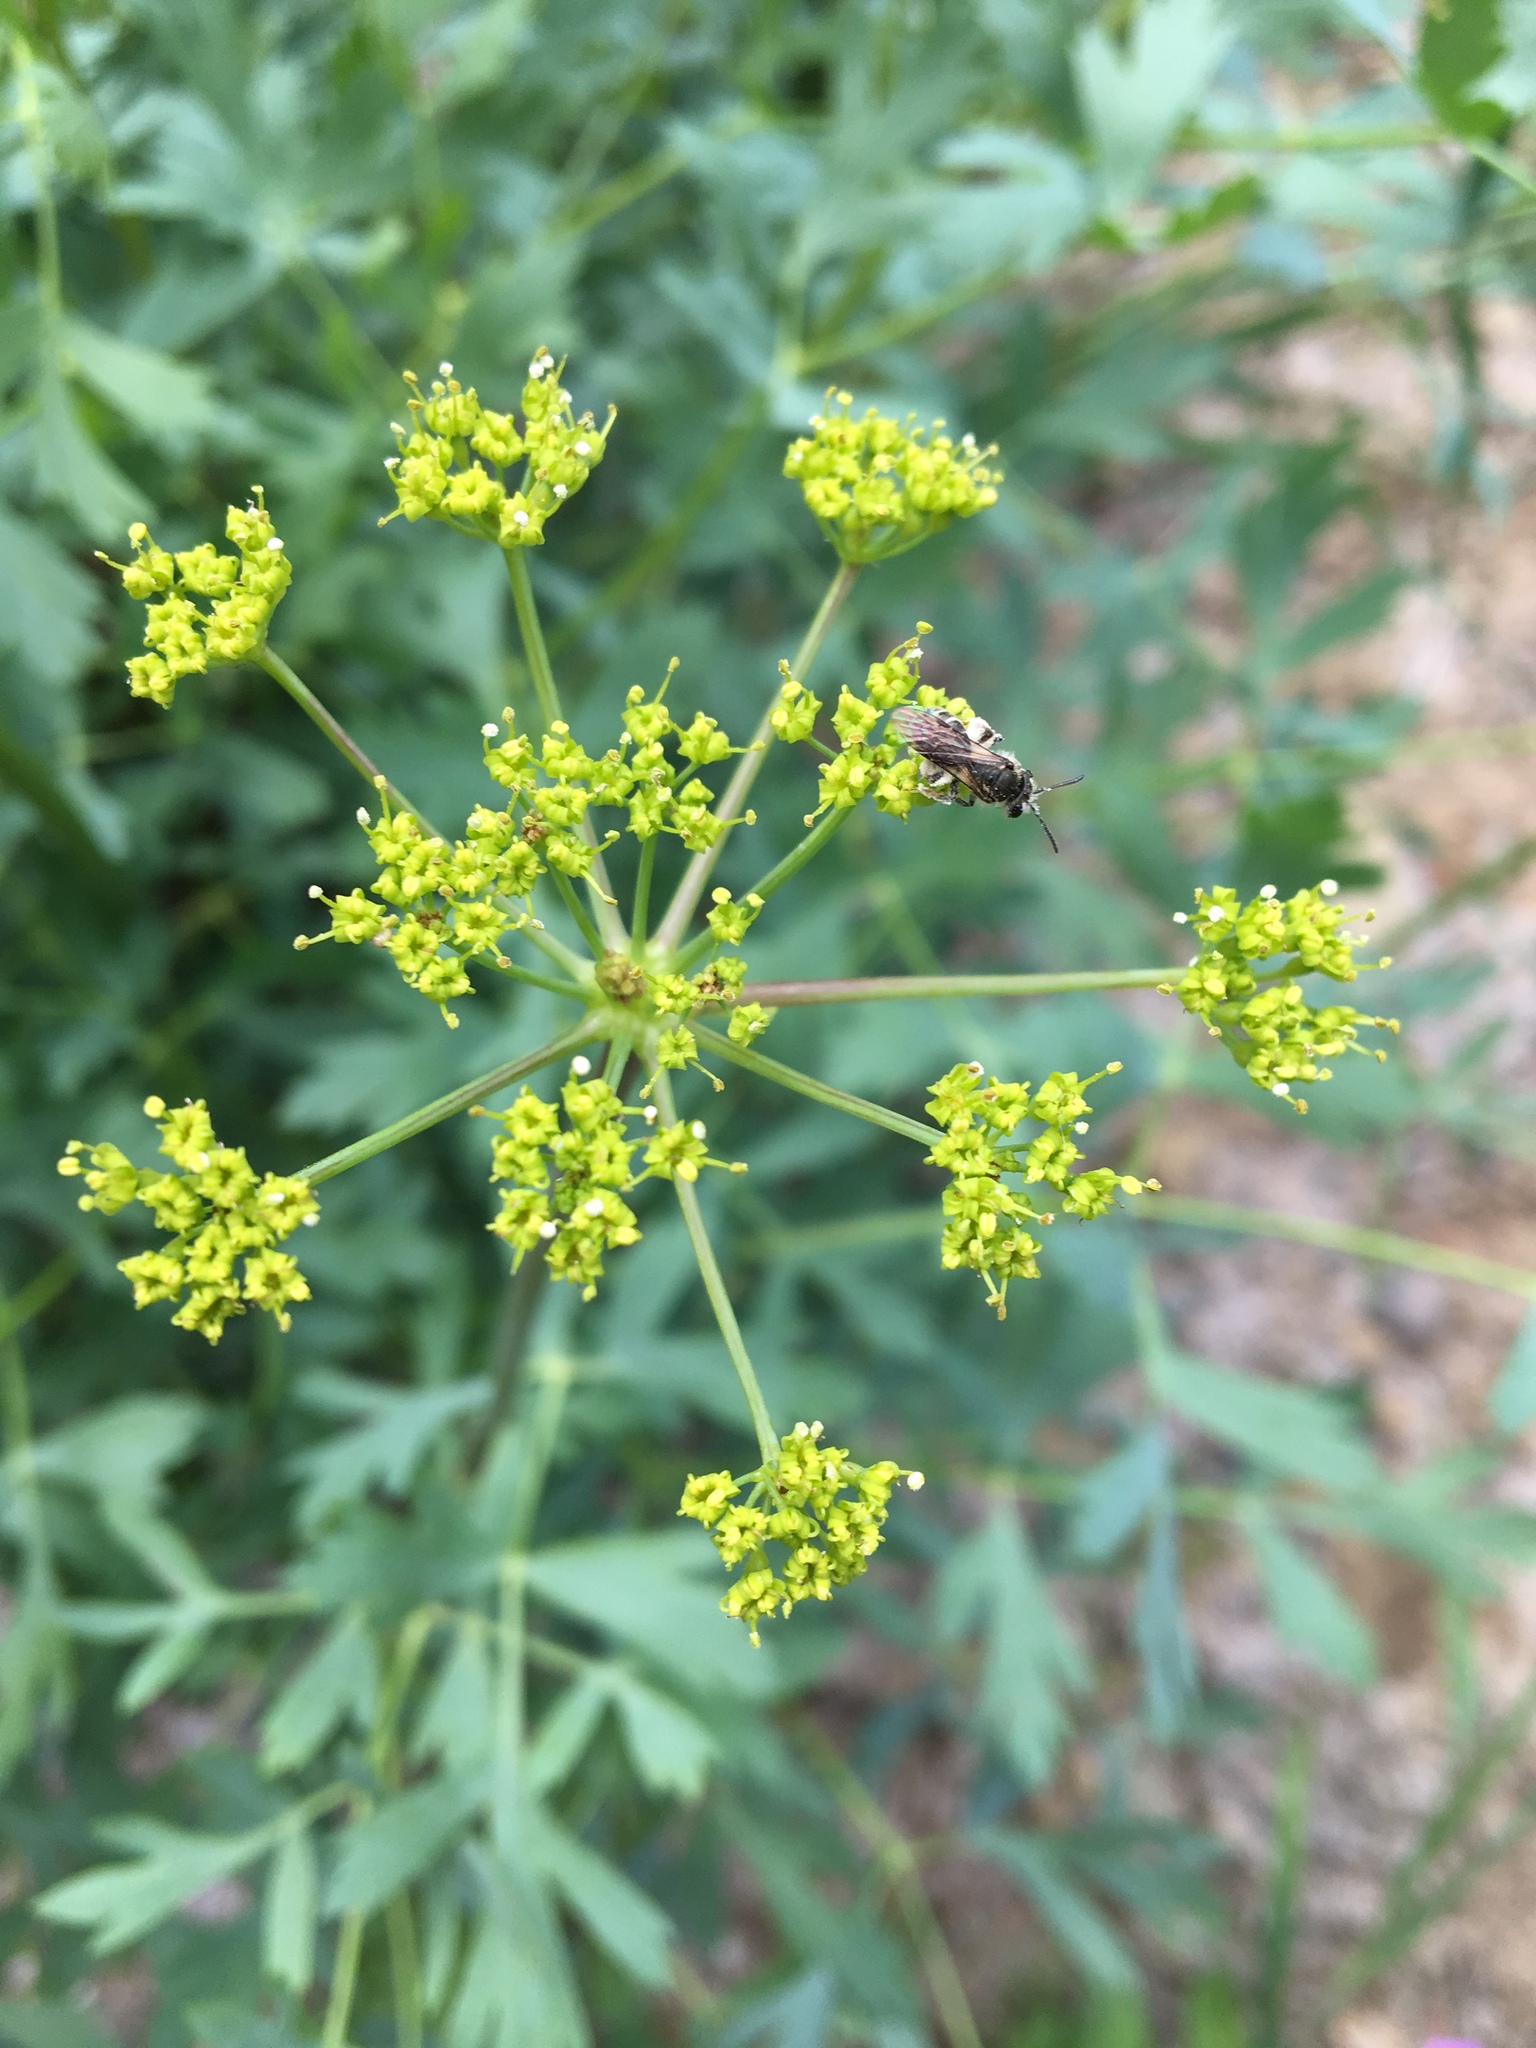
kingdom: Plantae
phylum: Tracheophyta
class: Magnoliopsida
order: Apiales
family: Apiaceae
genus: Lomatium
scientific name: Lomatium californicum
